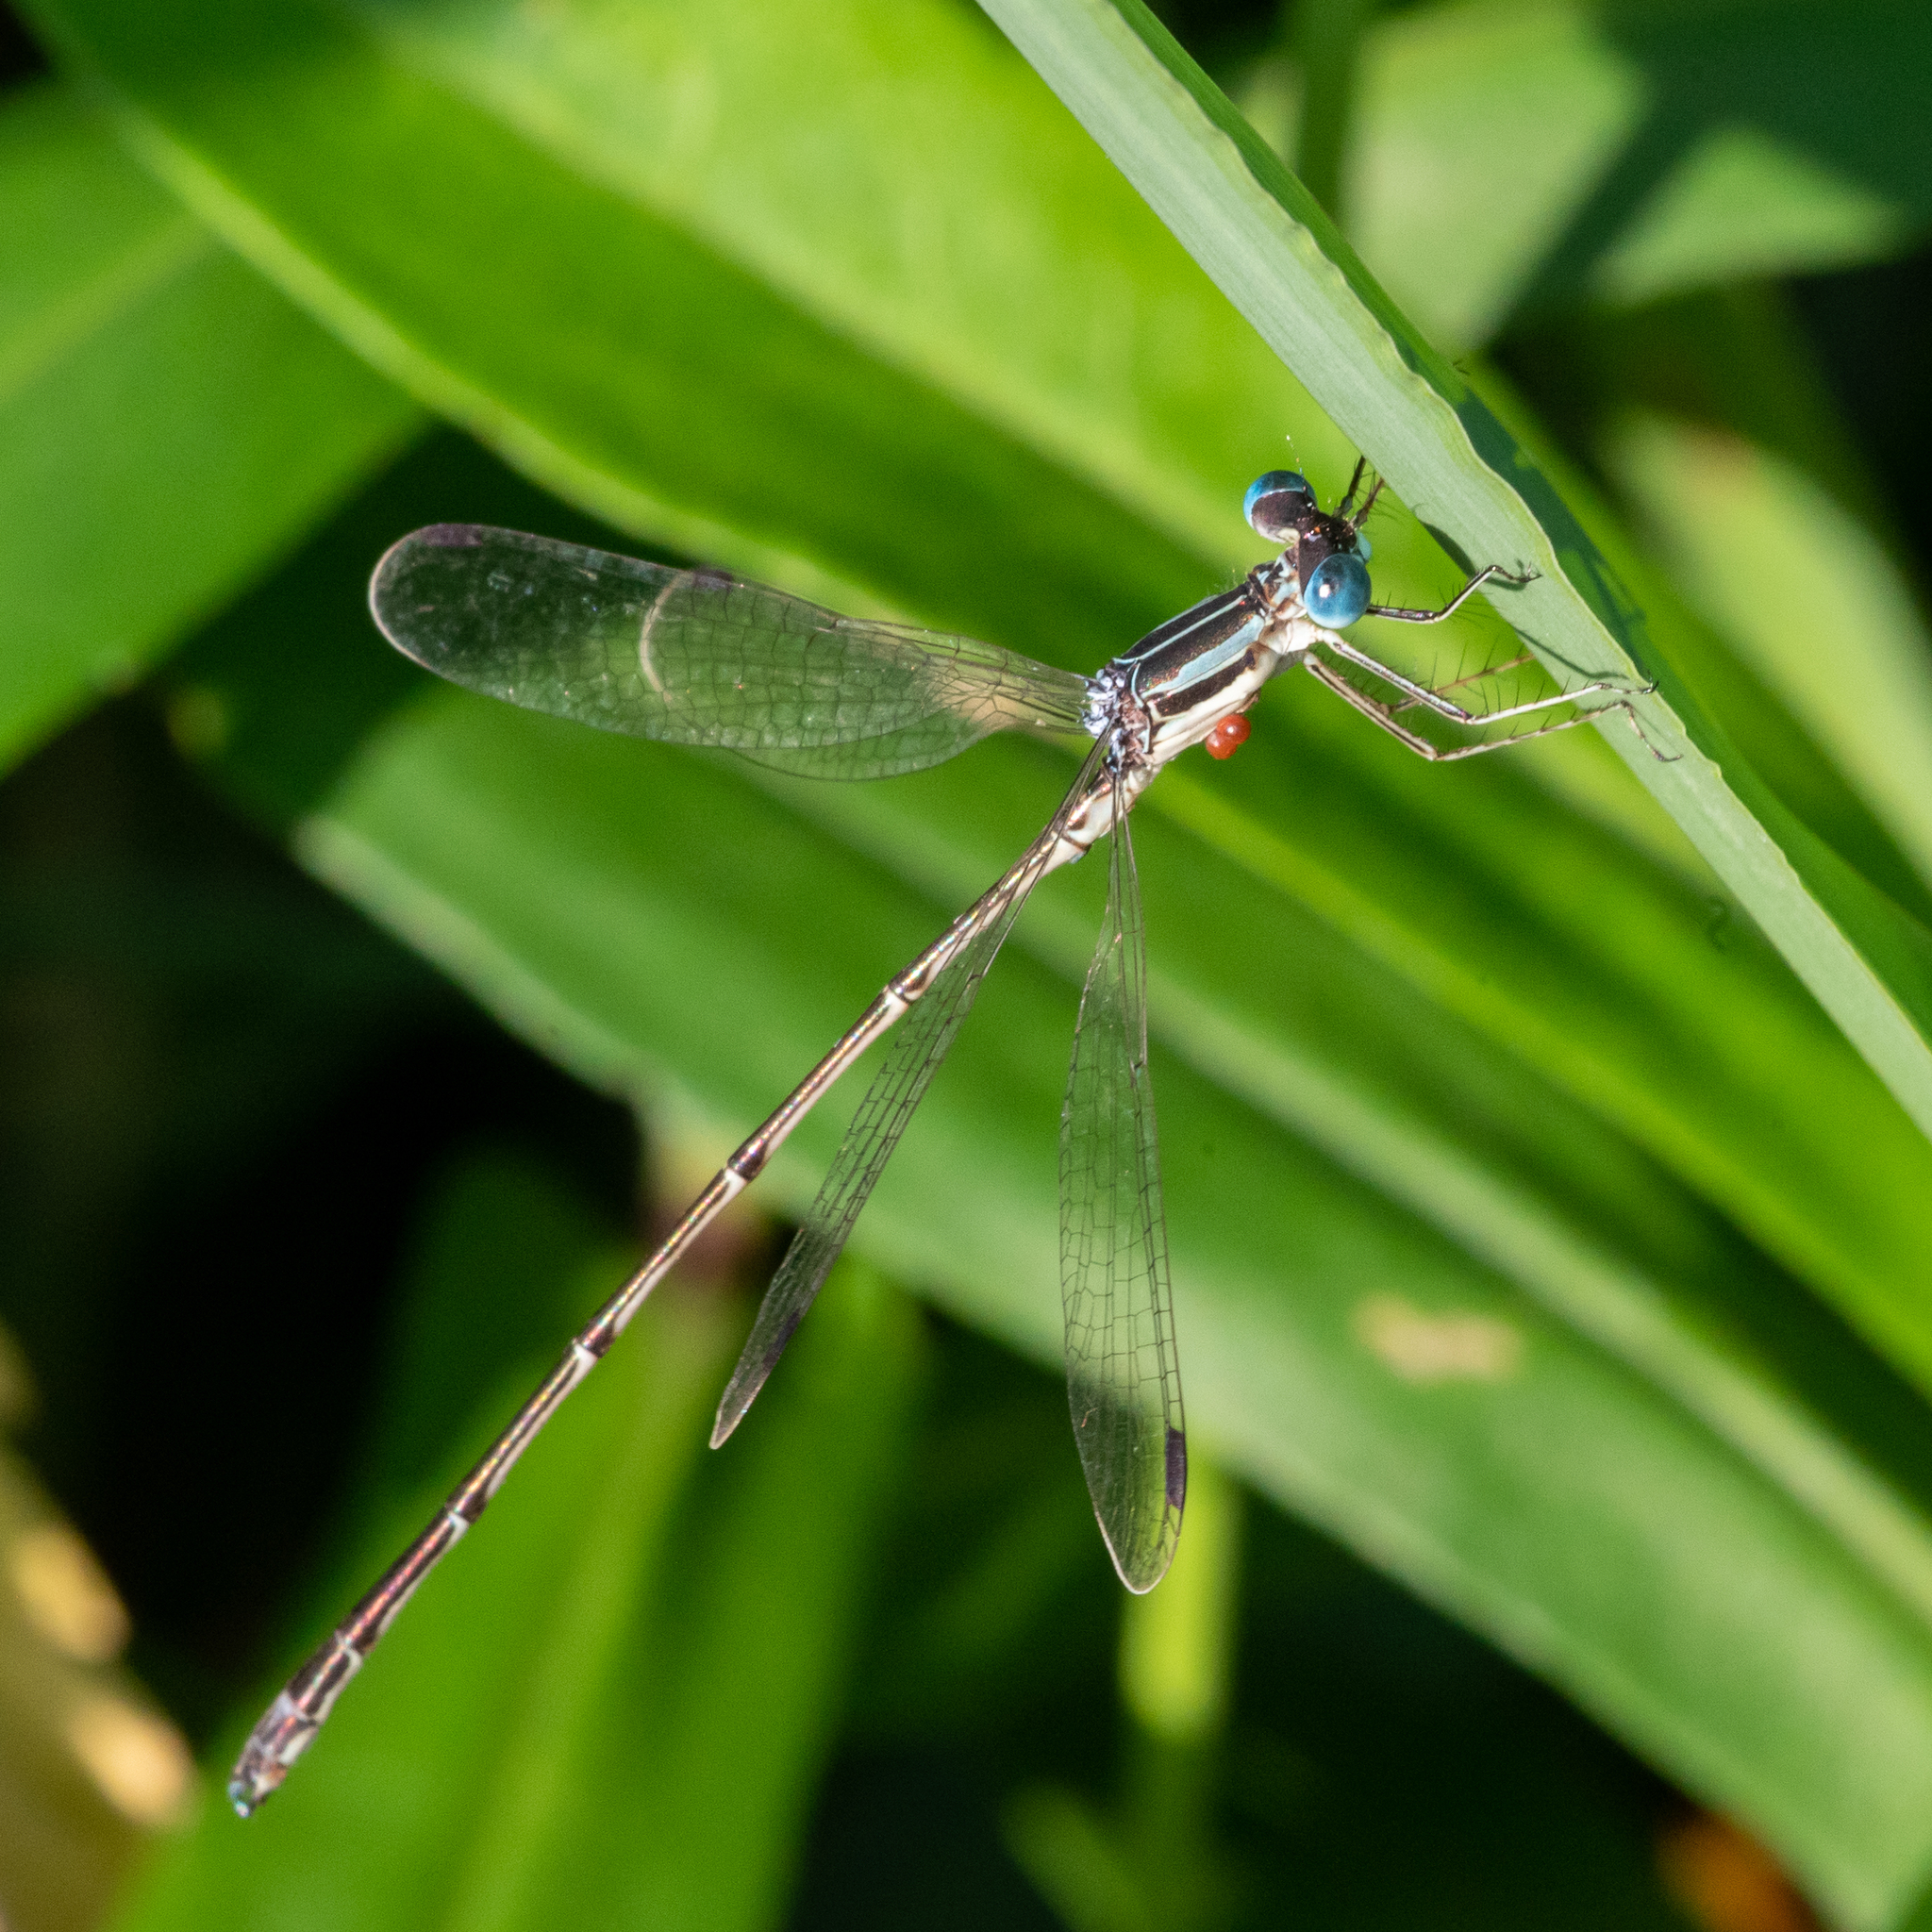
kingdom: Animalia
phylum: Arthropoda
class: Insecta
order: Odonata
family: Lestidae
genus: Lestes
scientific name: Lestes rectangularis
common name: Slender spreadwing
